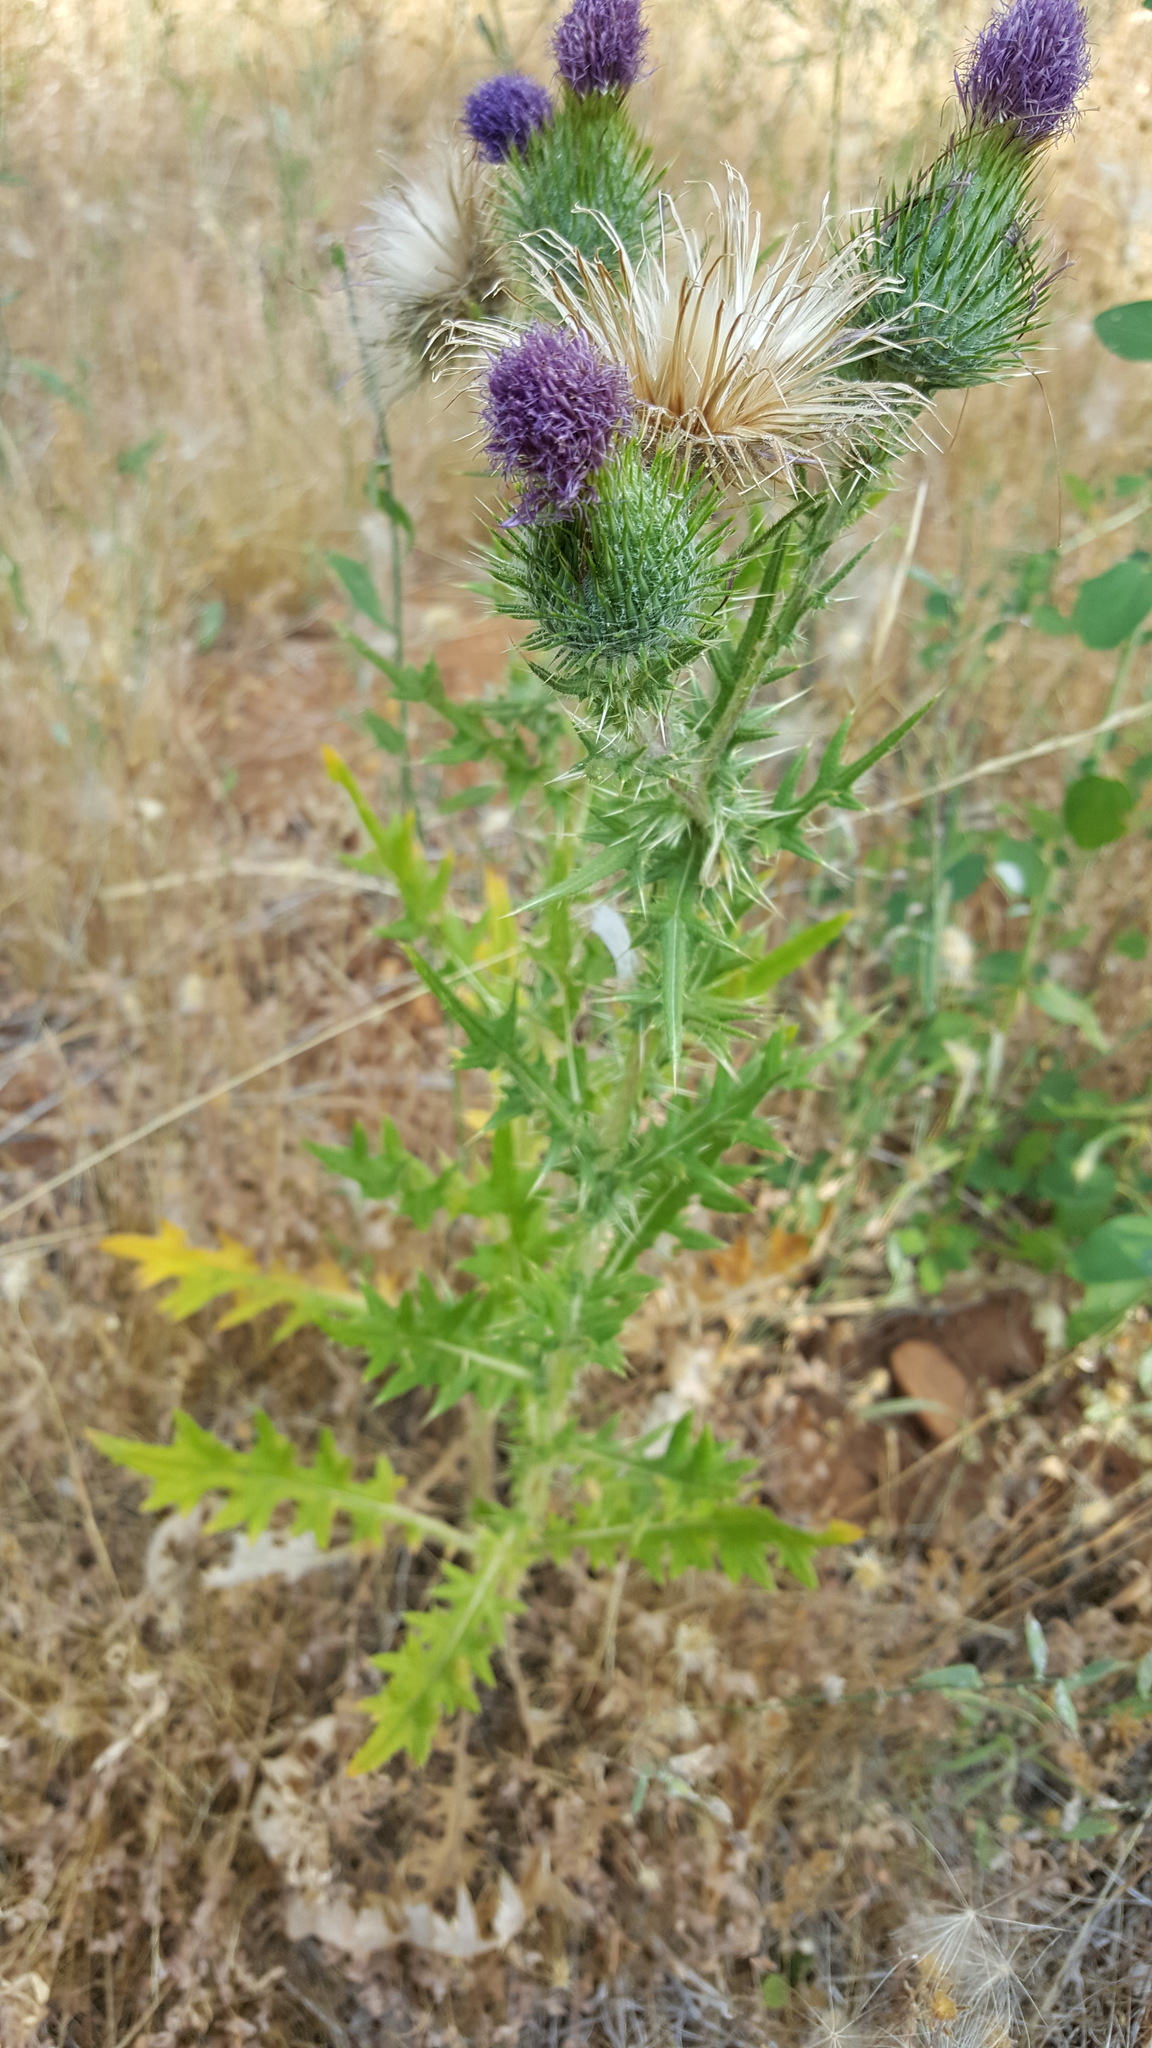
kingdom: Plantae
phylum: Tracheophyta
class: Magnoliopsida
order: Asterales
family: Asteraceae
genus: Cirsium
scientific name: Cirsium vulgare
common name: Bull thistle
